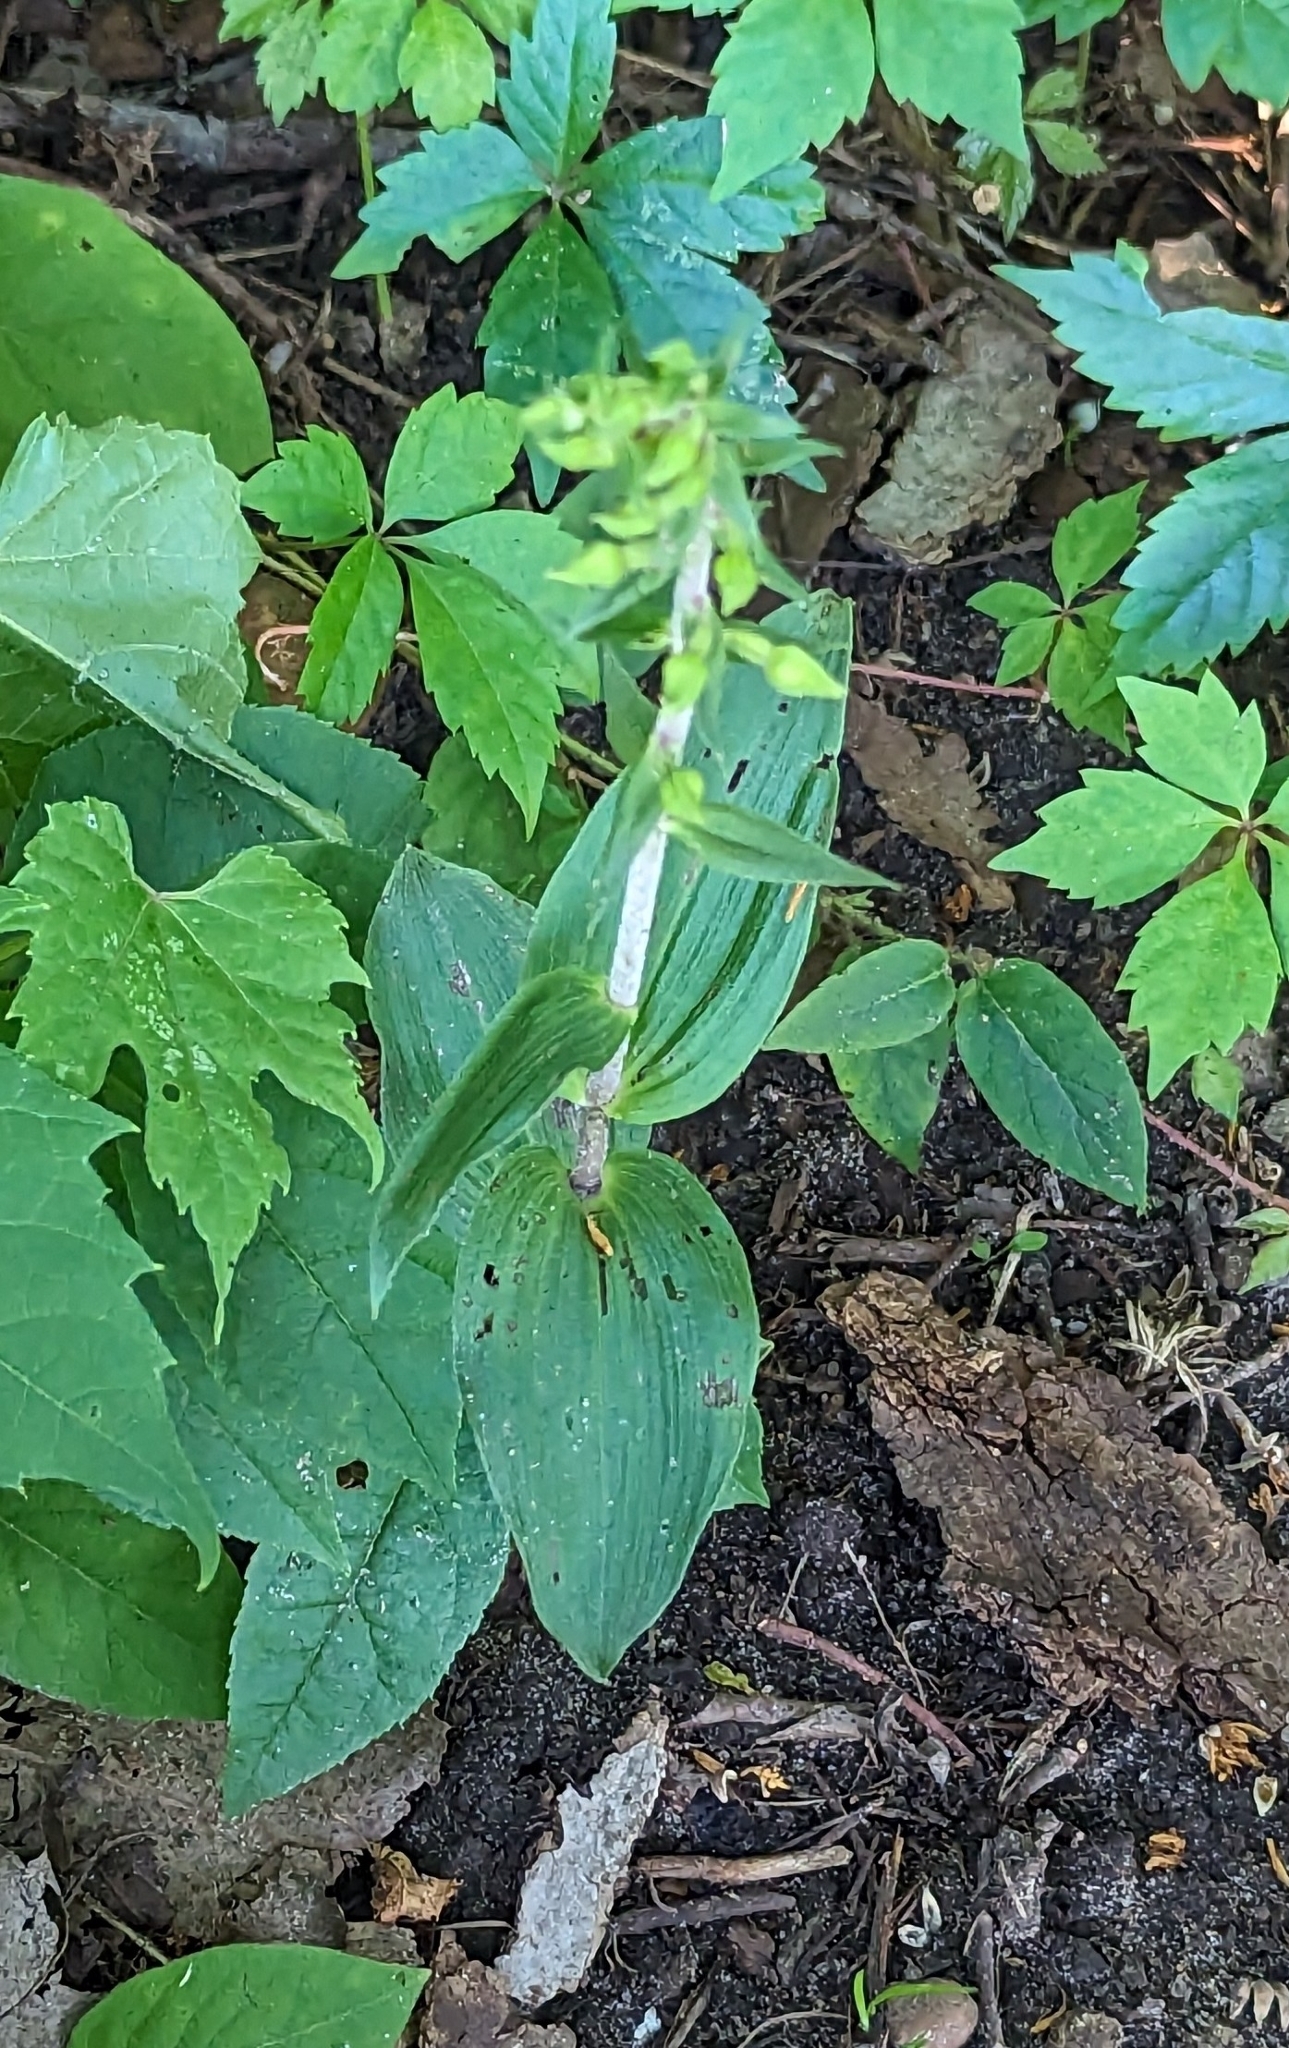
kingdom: Plantae
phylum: Tracheophyta
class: Liliopsida
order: Asparagales
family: Orchidaceae
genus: Epipactis
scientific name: Epipactis helleborine
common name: Broad-leaved helleborine
